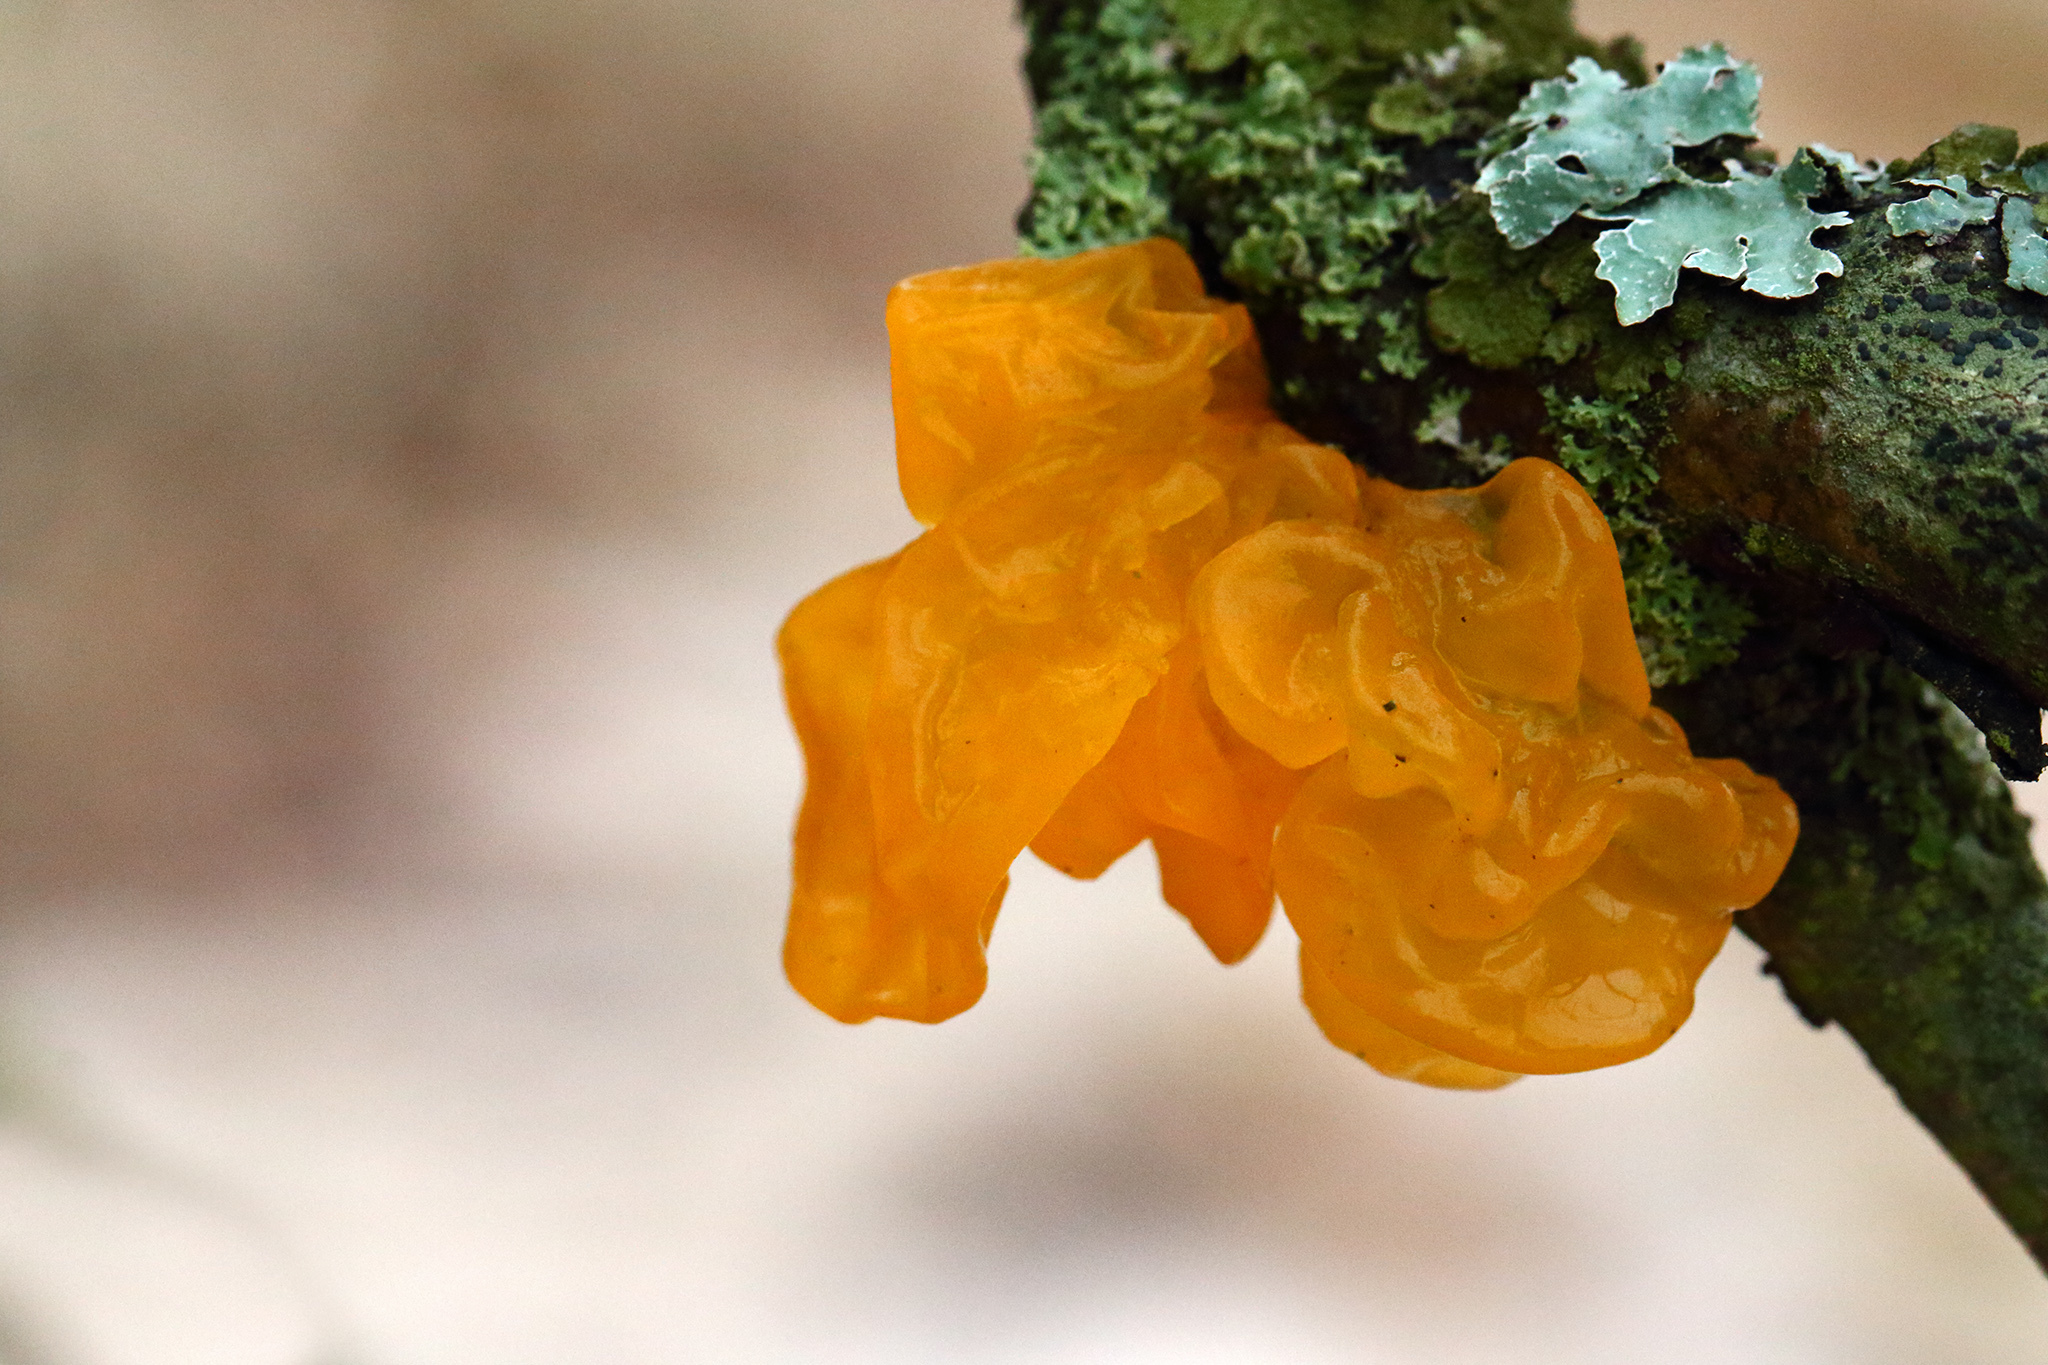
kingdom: Fungi
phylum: Basidiomycota
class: Tremellomycetes
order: Tremellales
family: Tremellaceae
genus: Tremella
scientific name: Tremella mesenterica
